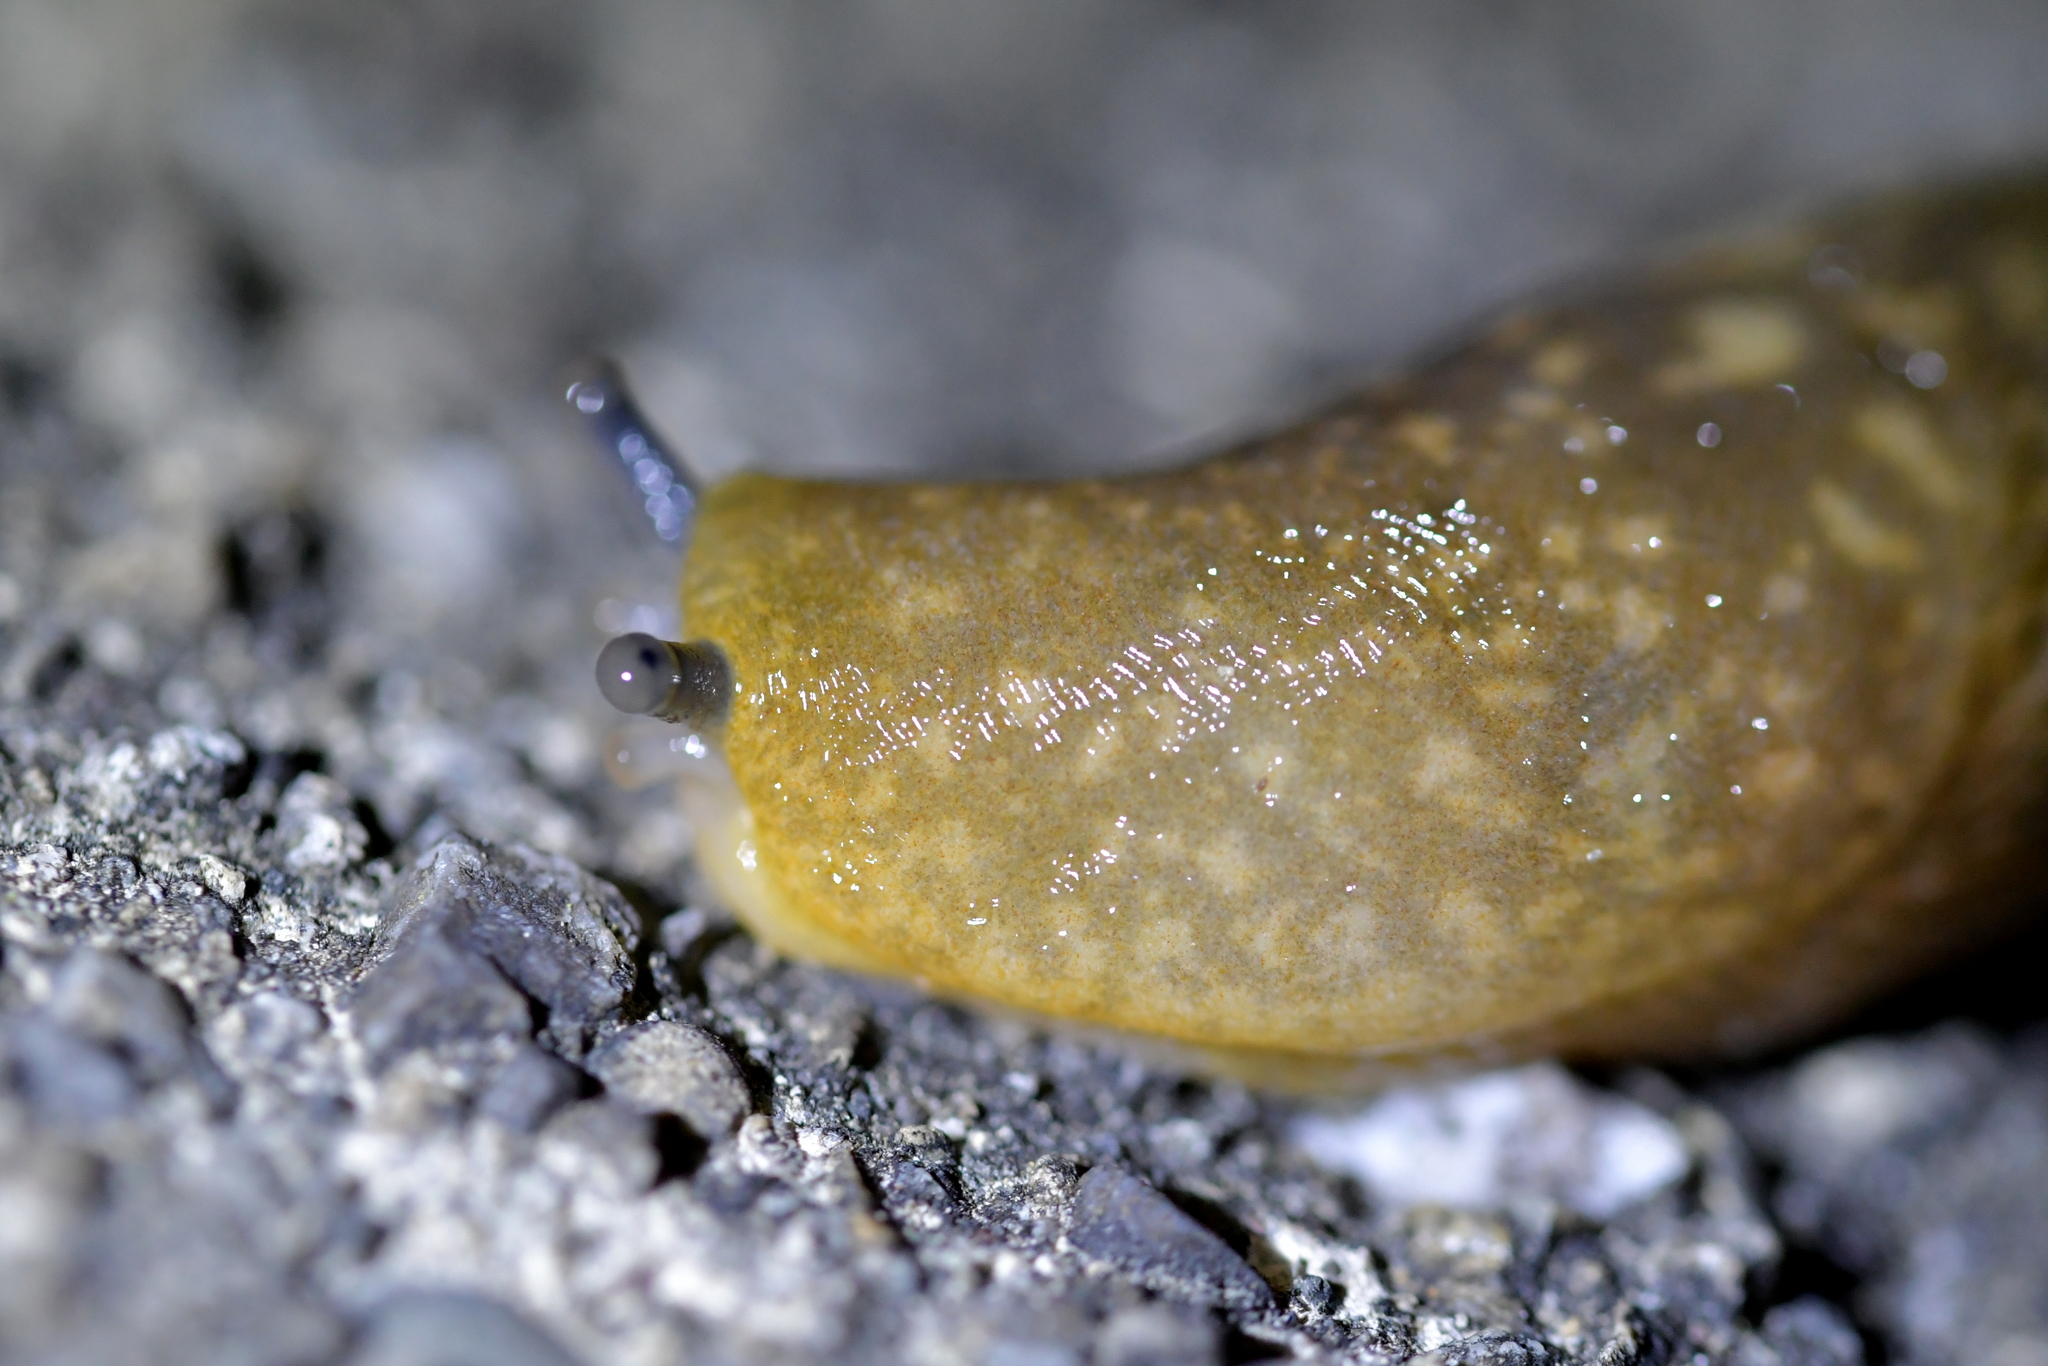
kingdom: Animalia
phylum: Mollusca
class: Gastropoda
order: Stylommatophora
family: Limacidae
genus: Limacus
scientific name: Limacus flavus
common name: Yellow gardenslug
